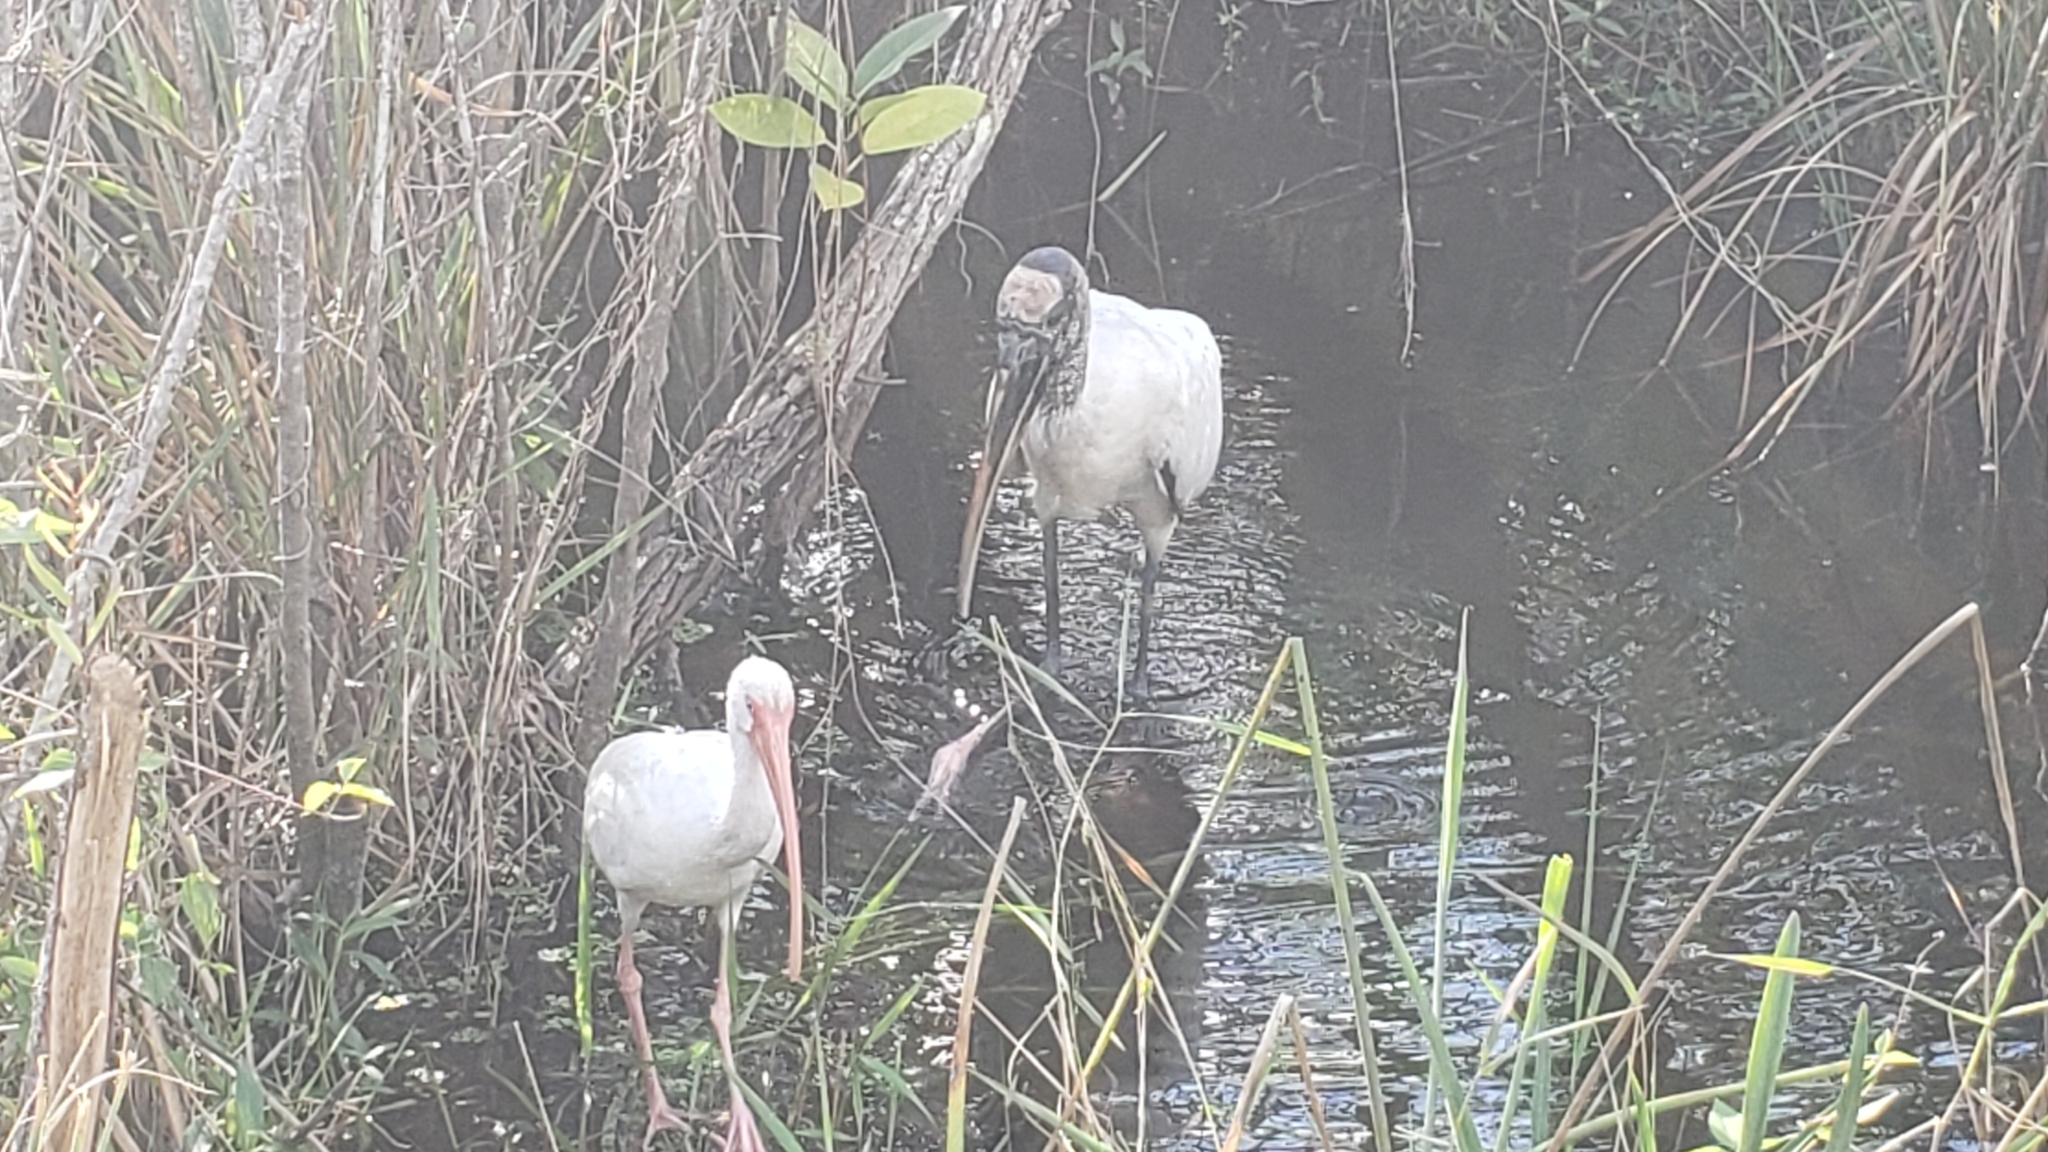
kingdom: Animalia
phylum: Chordata
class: Aves
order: Pelecaniformes
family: Threskiornithidae
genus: Eudocimus
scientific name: Eudocimus albus
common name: White ibis
